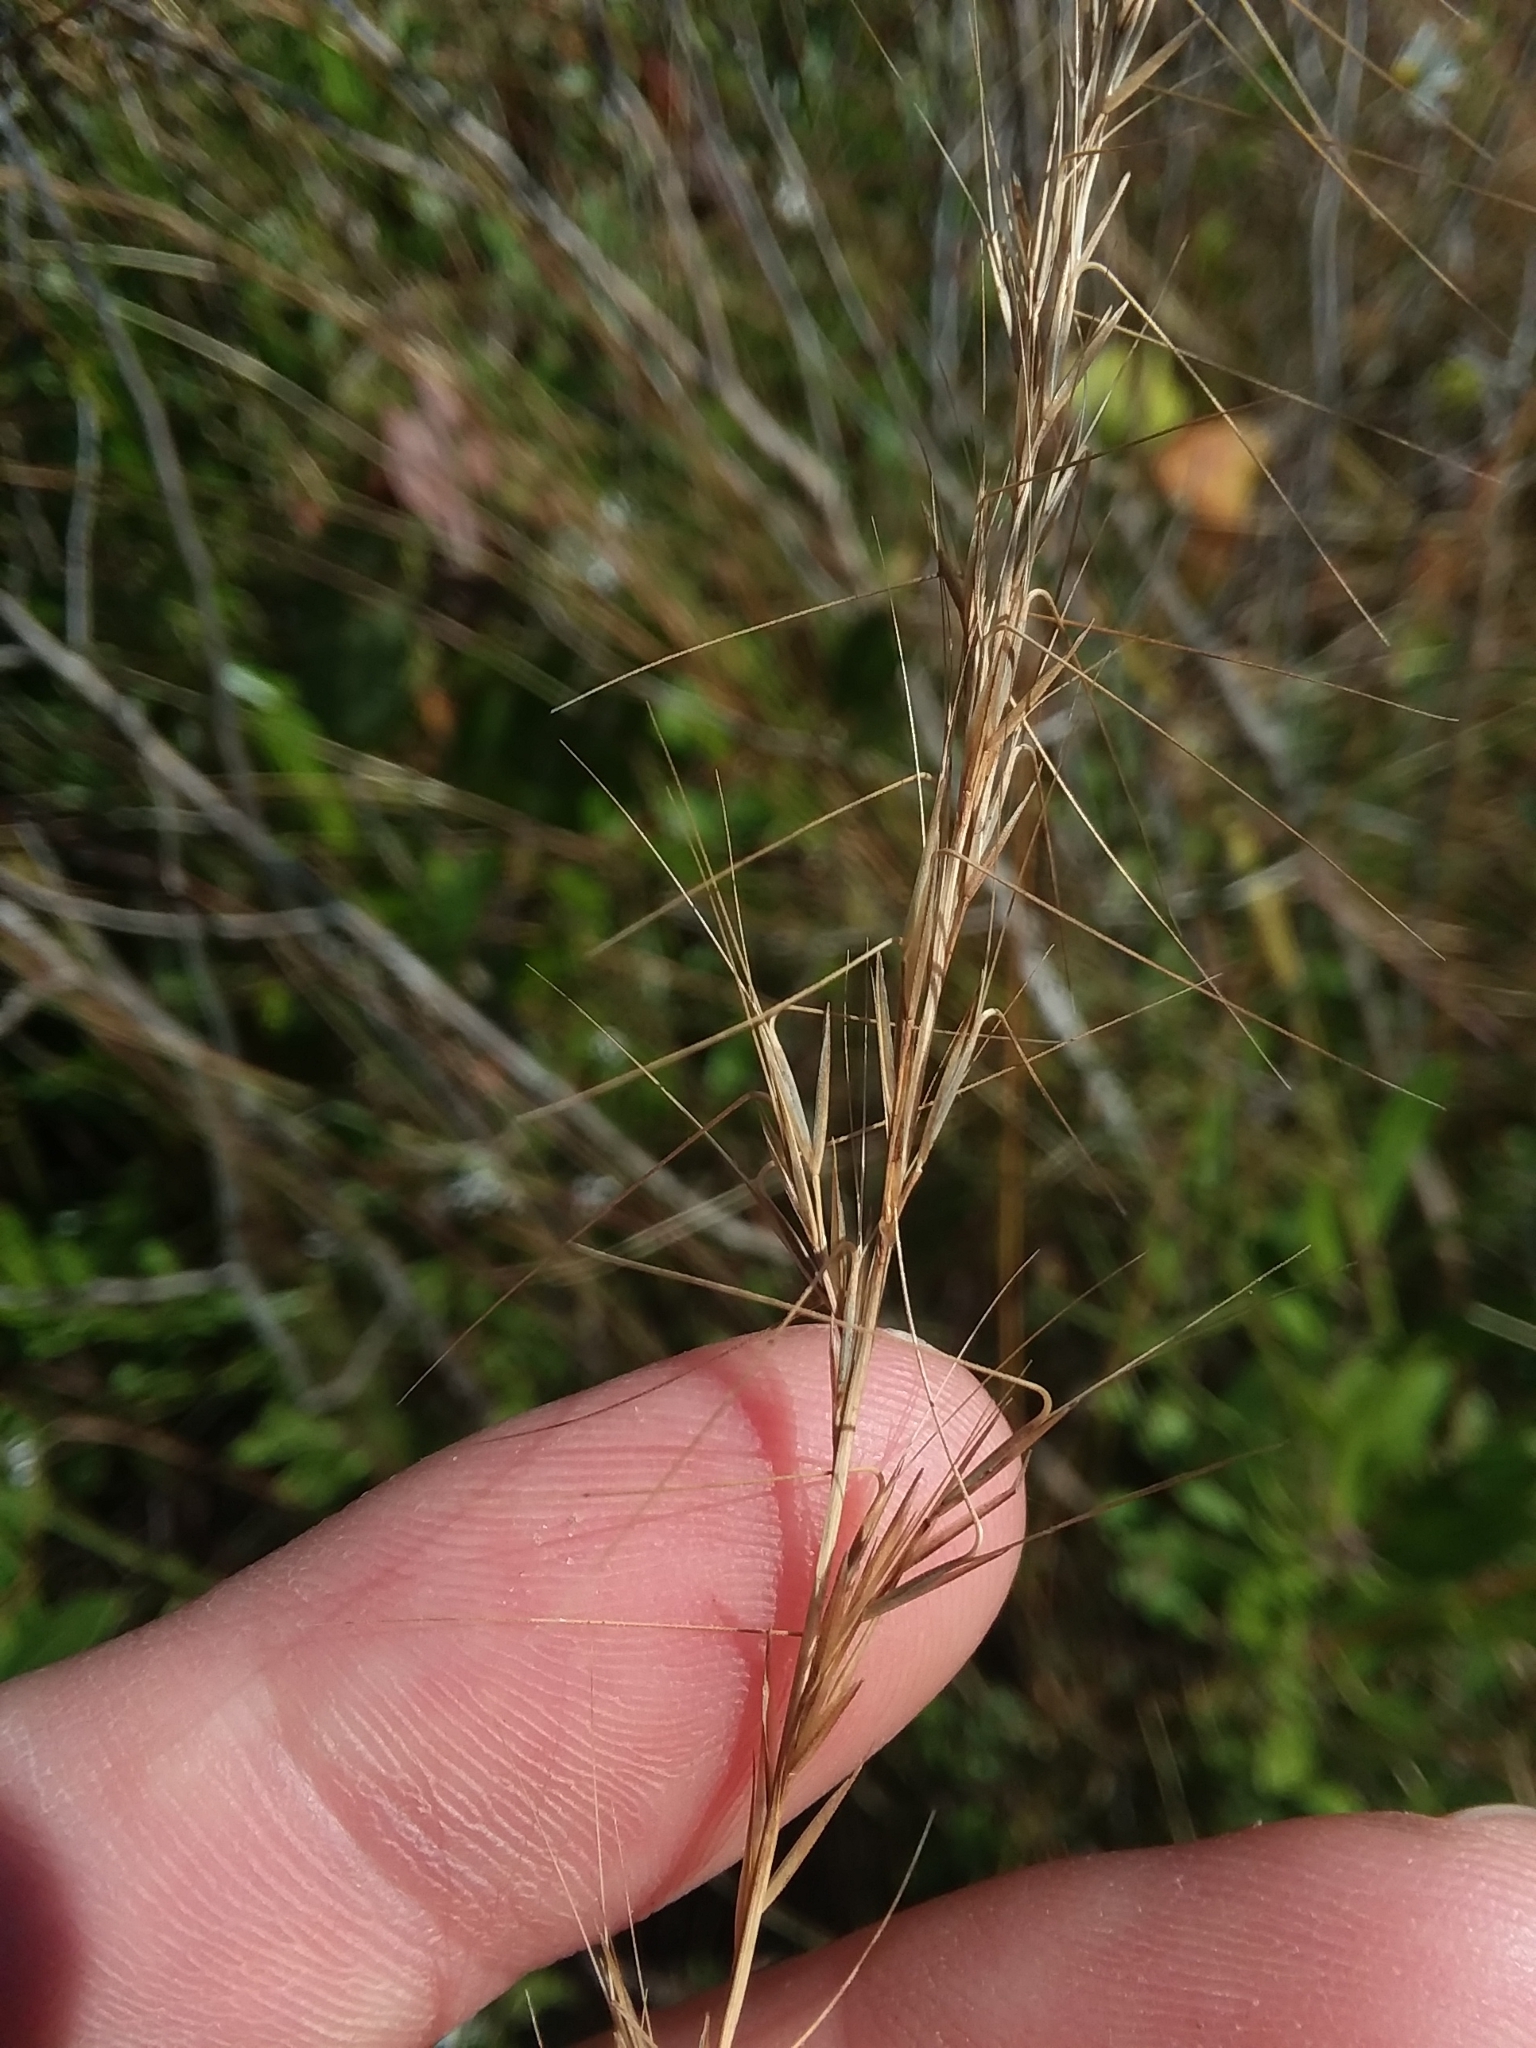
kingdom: Plantae
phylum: Tracheophyta
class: Liliopsida
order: Poales
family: Poaceae
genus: Aristida
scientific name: Aristida virgata
